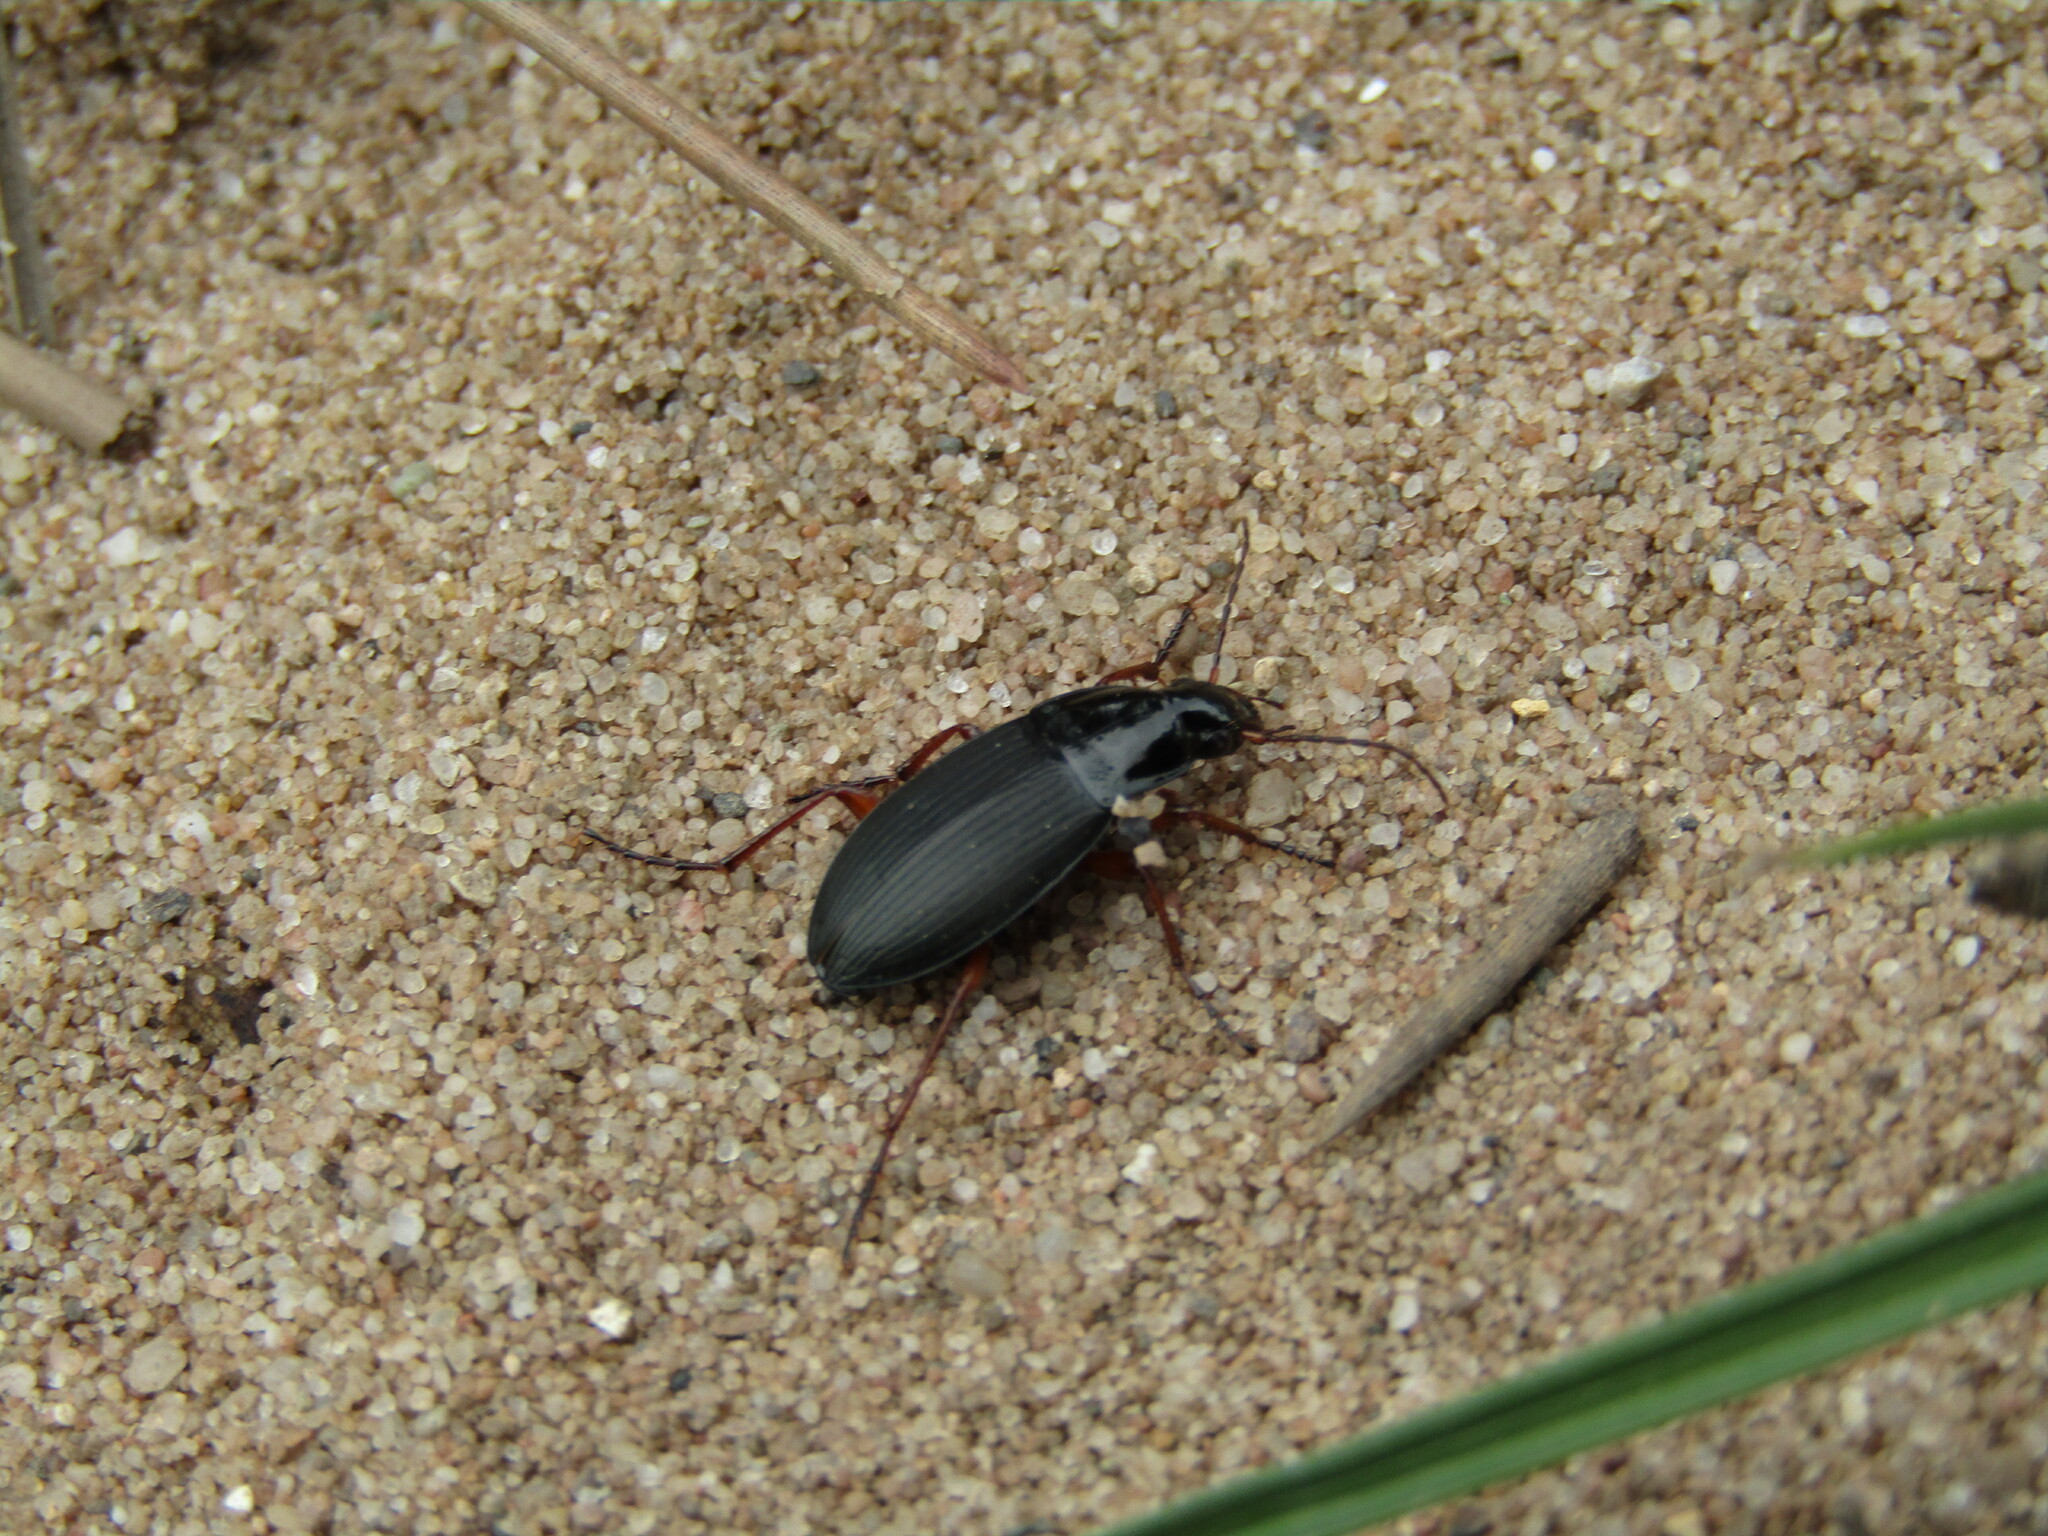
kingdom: Animalia
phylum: Arthropoda
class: Insecta
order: Coleoptera
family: Carabidae
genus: Calathus
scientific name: Calathus fuscipes
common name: Dark-footed harp ground beetle
